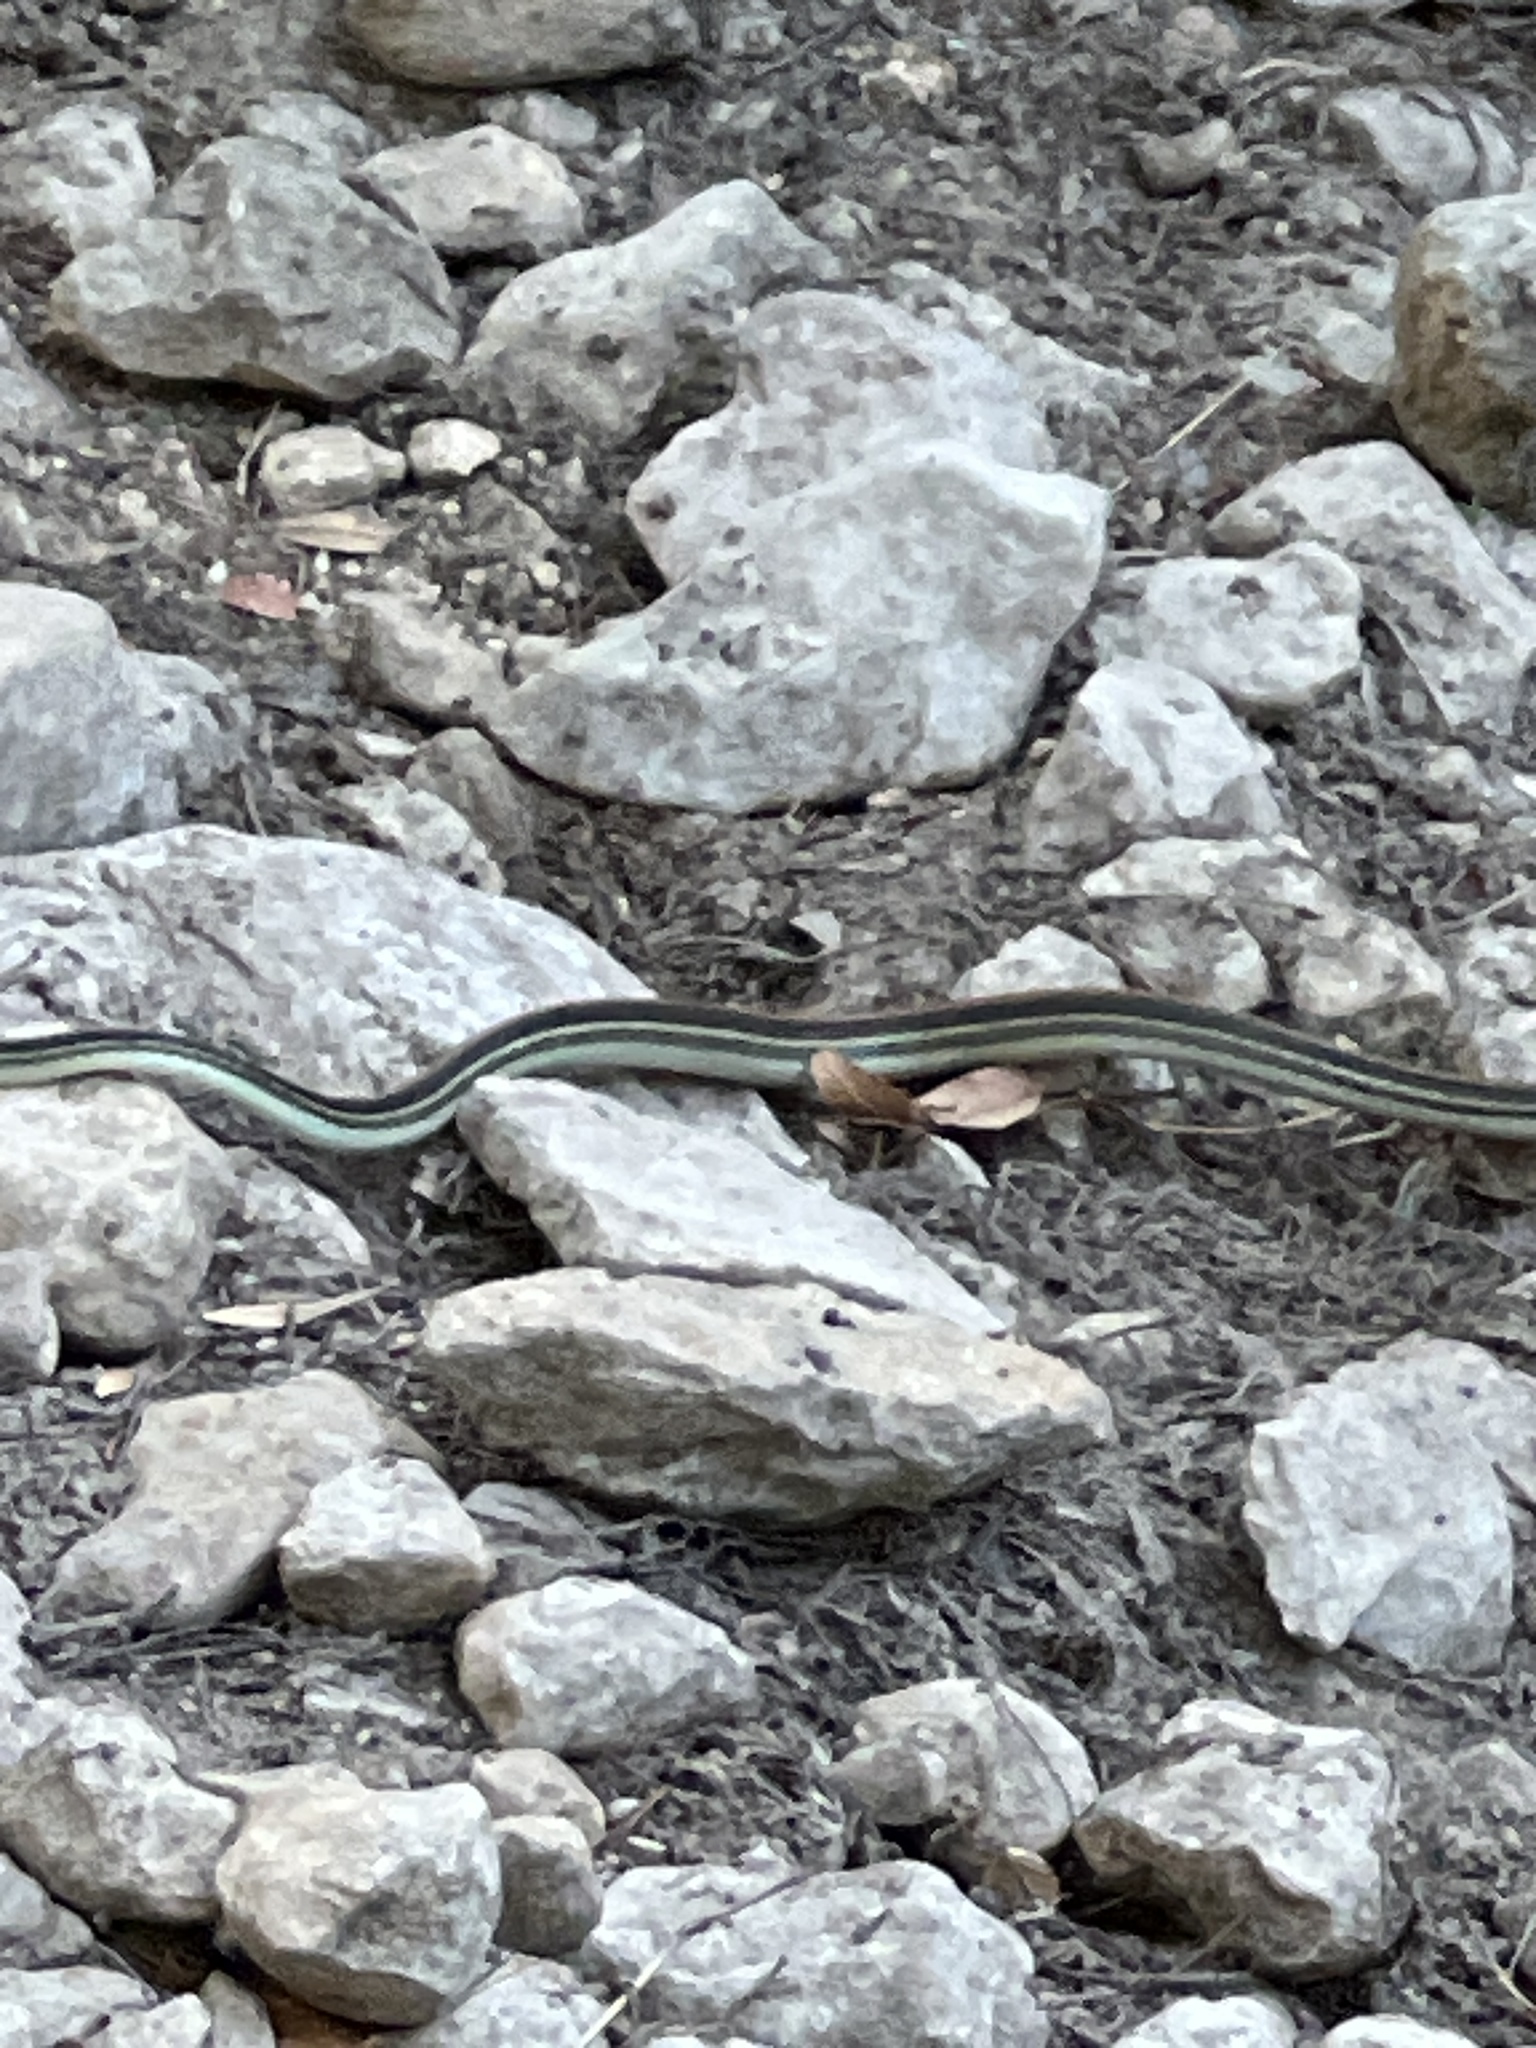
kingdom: Animalia
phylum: Chordata
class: Squamata
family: Colubridae
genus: Thamnophis
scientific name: Thamnophis proximus
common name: Western ribbon snake
